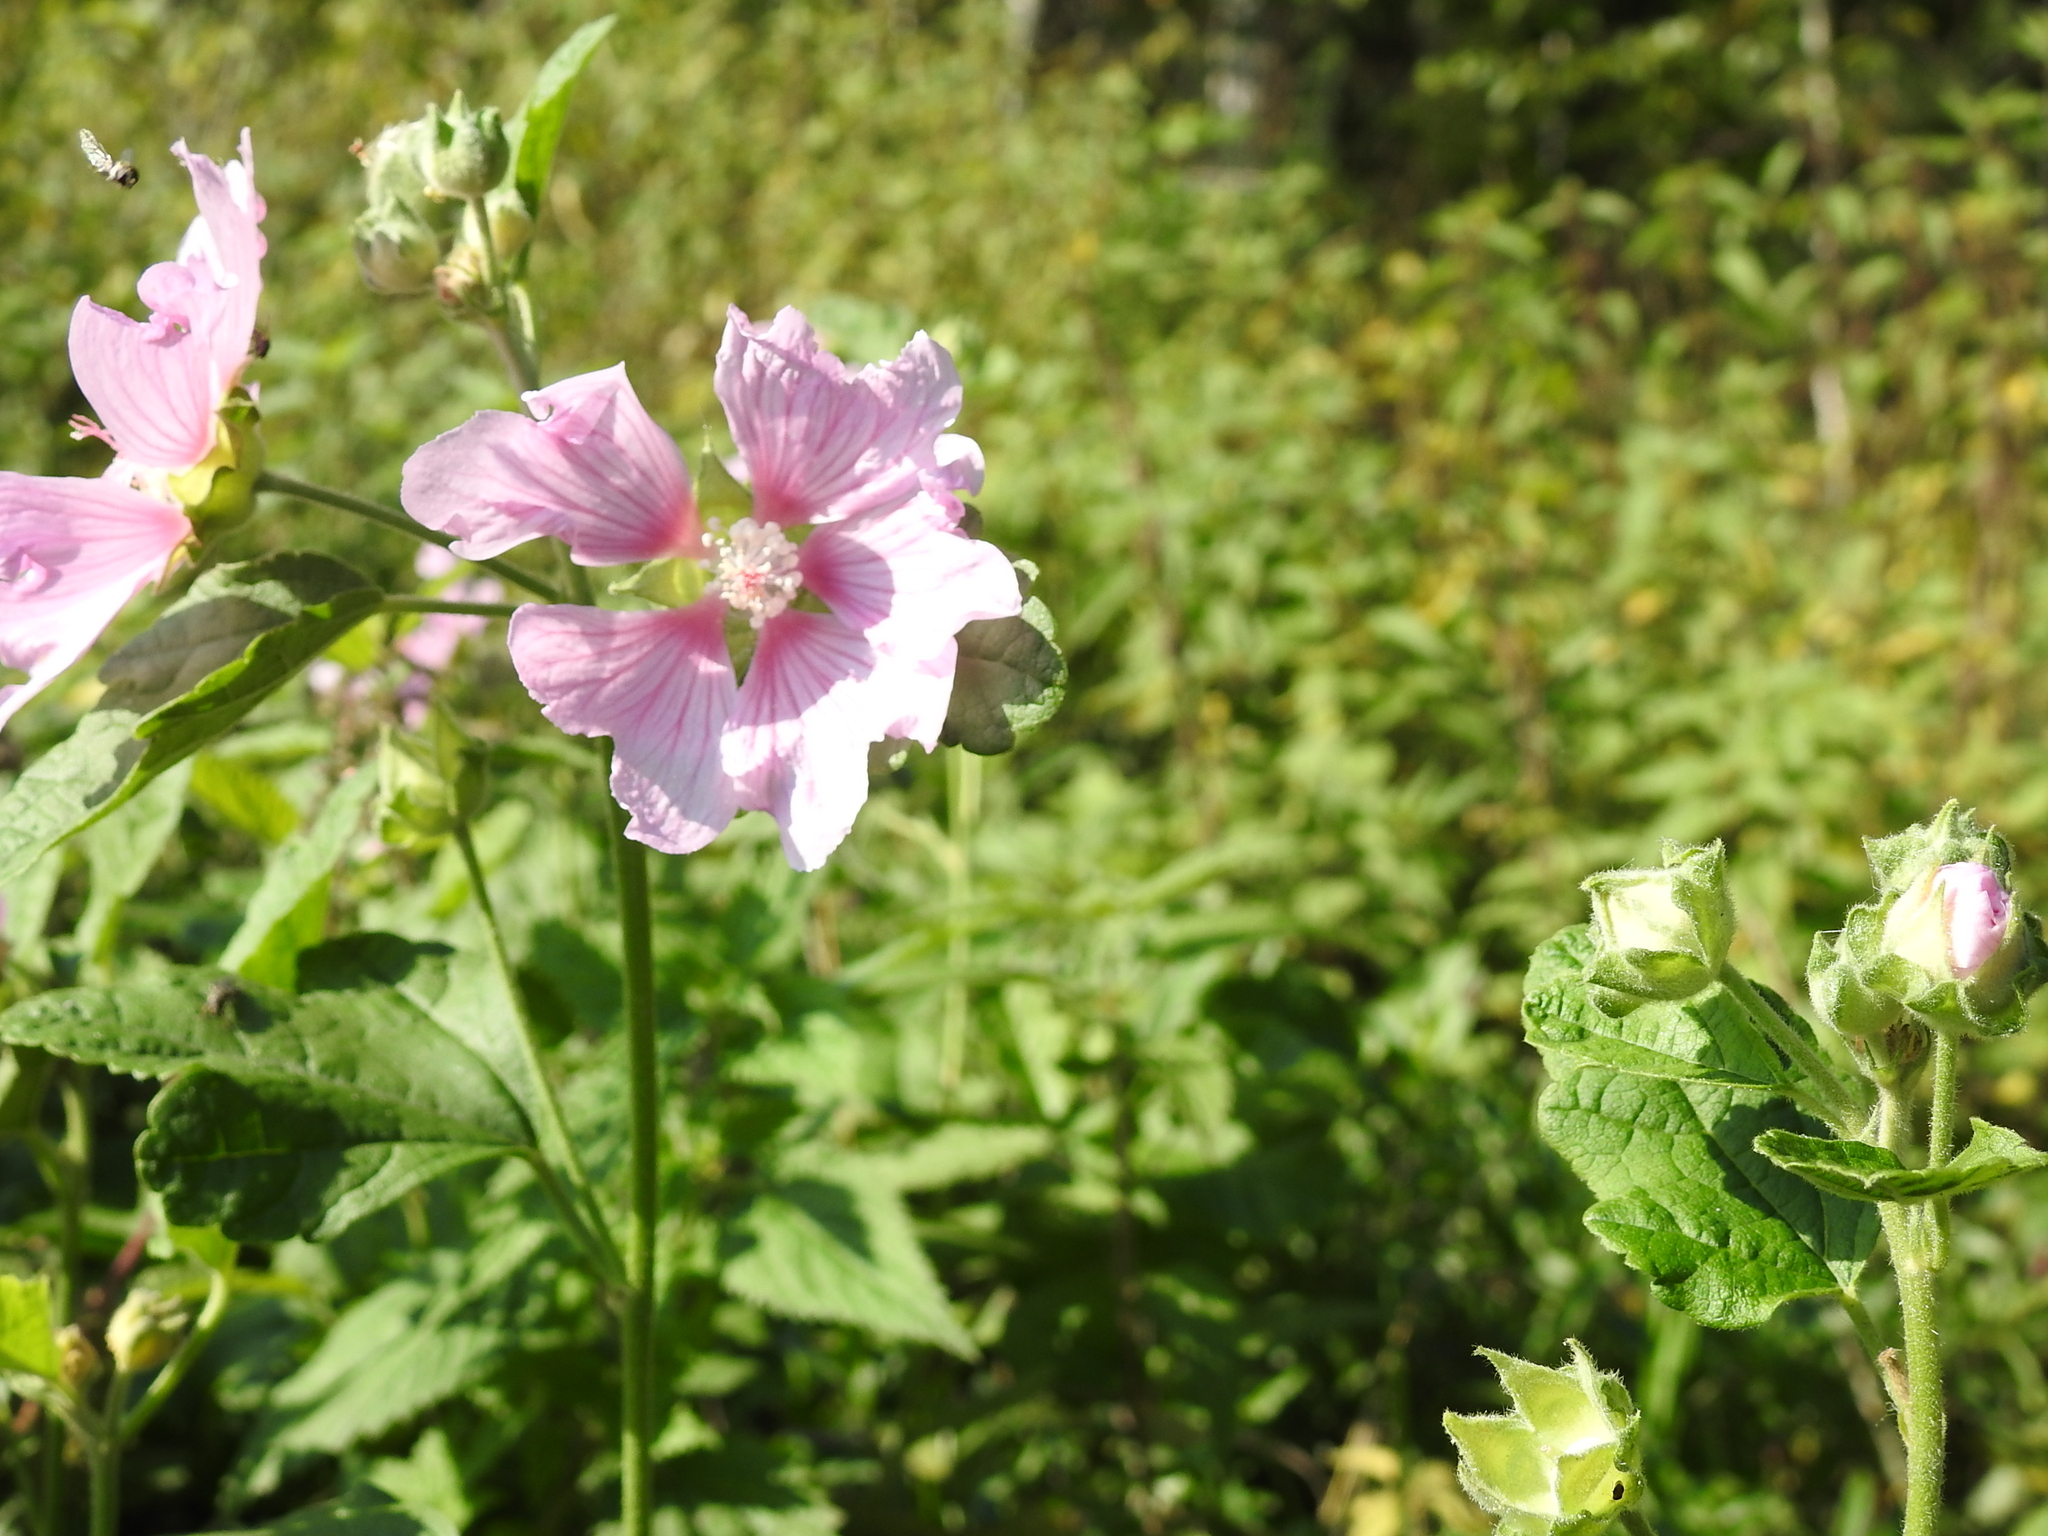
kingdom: Plantae
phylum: Tracheophyta
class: Magnoliopsida
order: Malvales
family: Malvaceae
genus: Malva
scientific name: Malva thuringiaca
